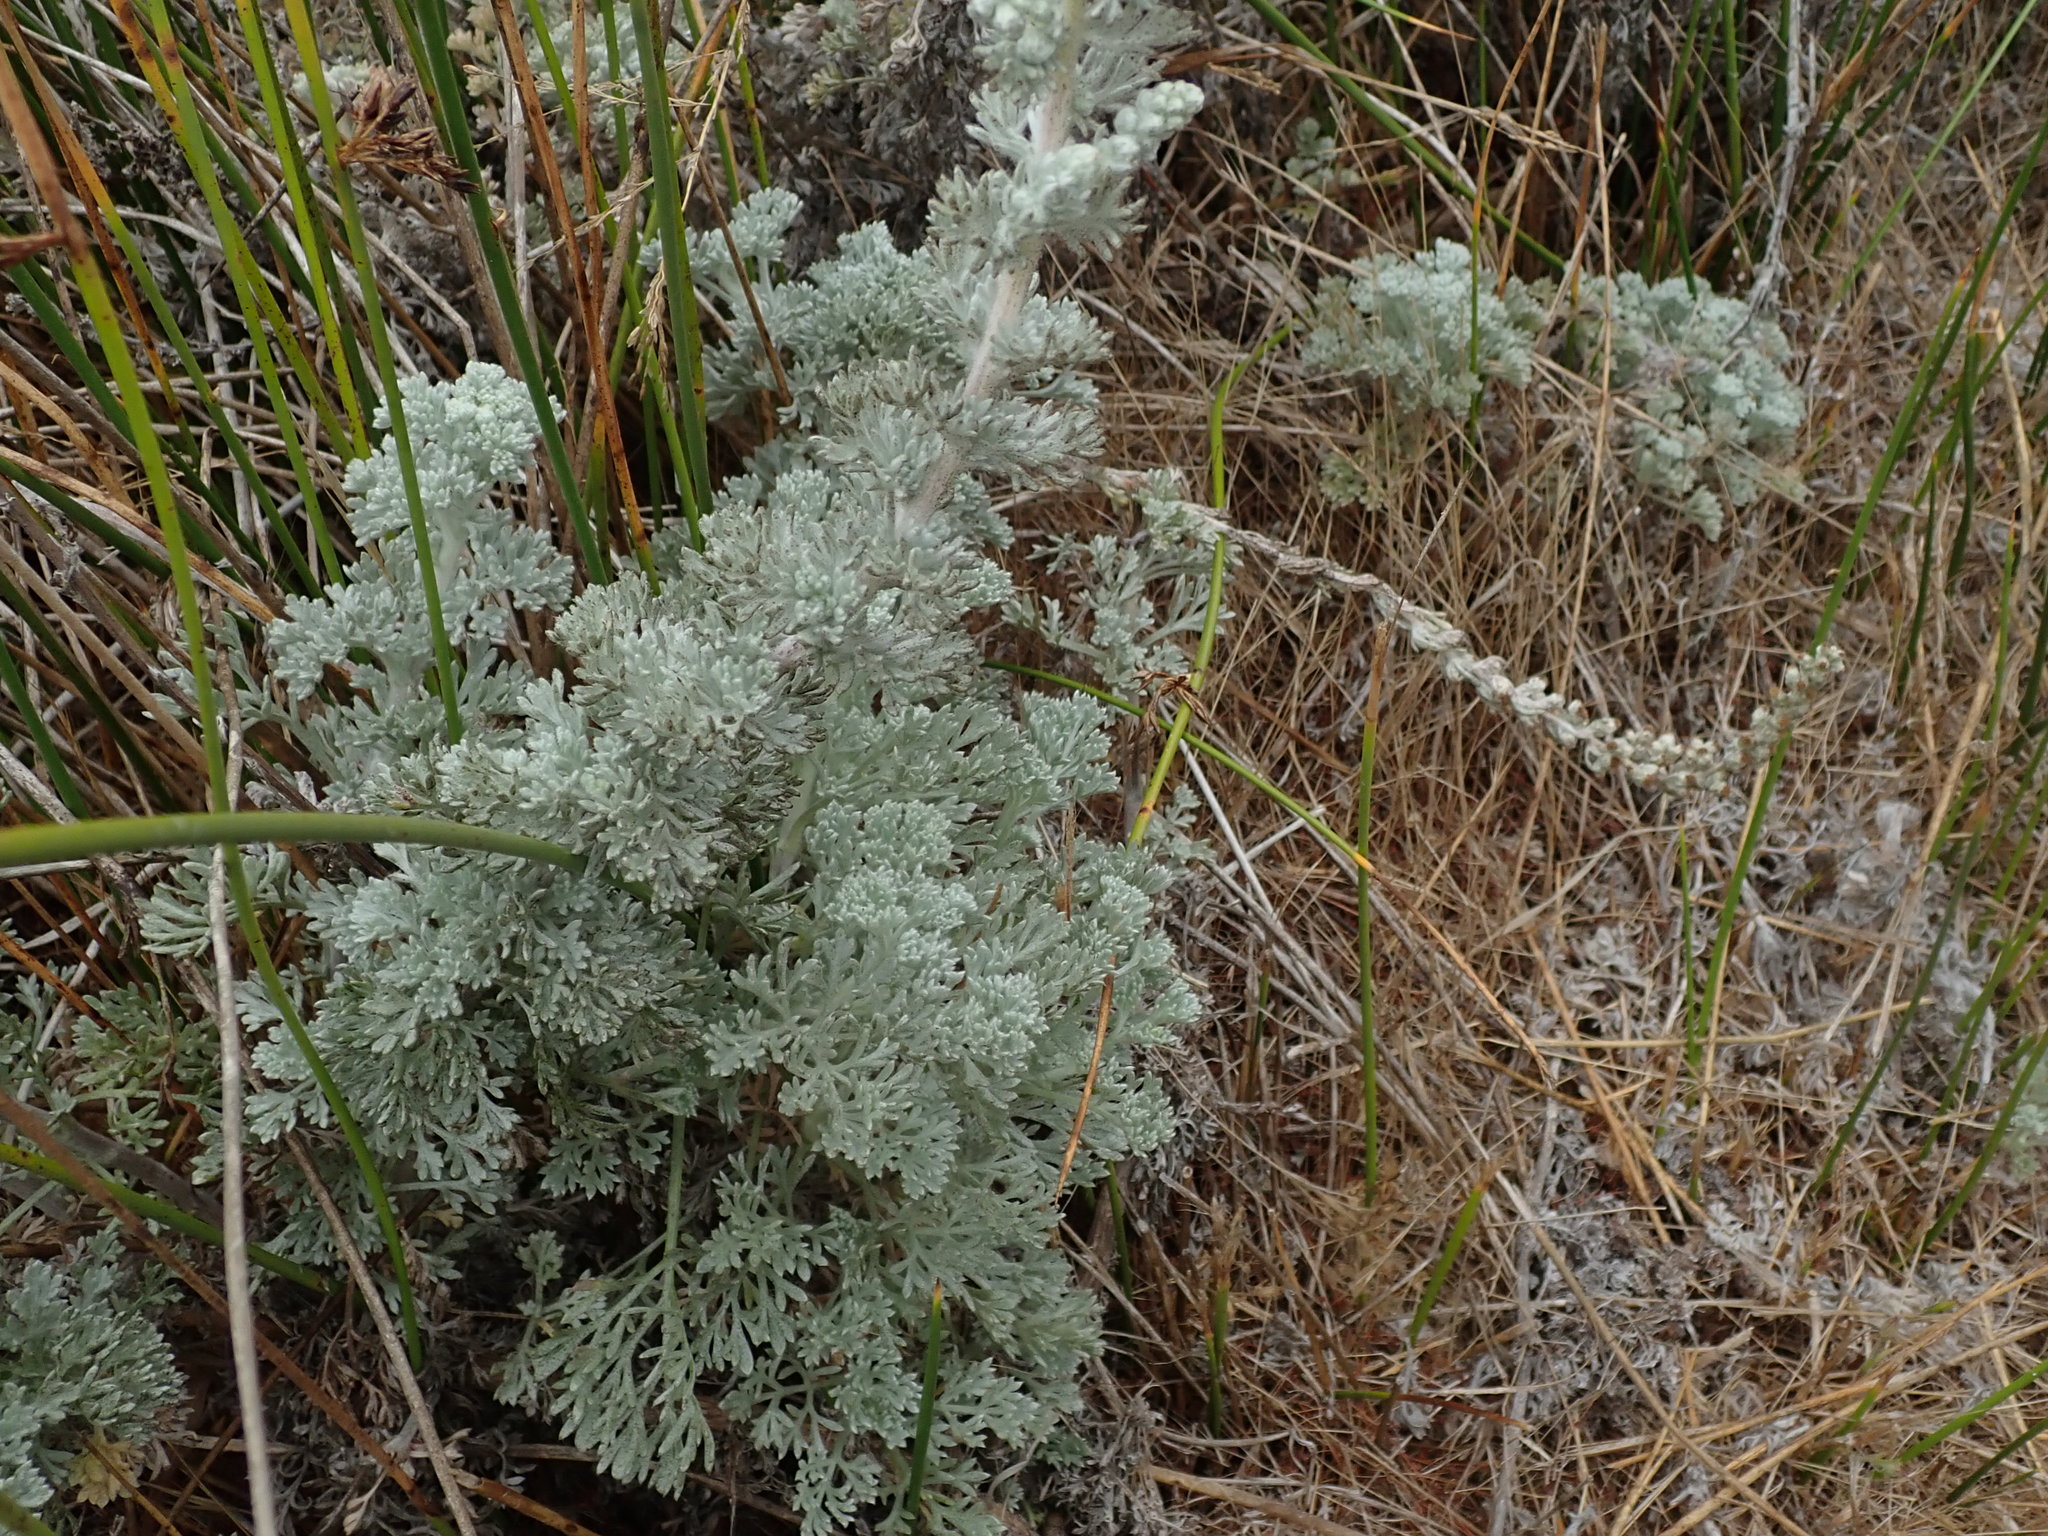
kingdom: Plantae
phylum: Tracheophyta
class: Magnoliopsida
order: Asterales
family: Asteraceae
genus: Artemisia
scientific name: Artemisia pycnocephala
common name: Coastal sagewort
